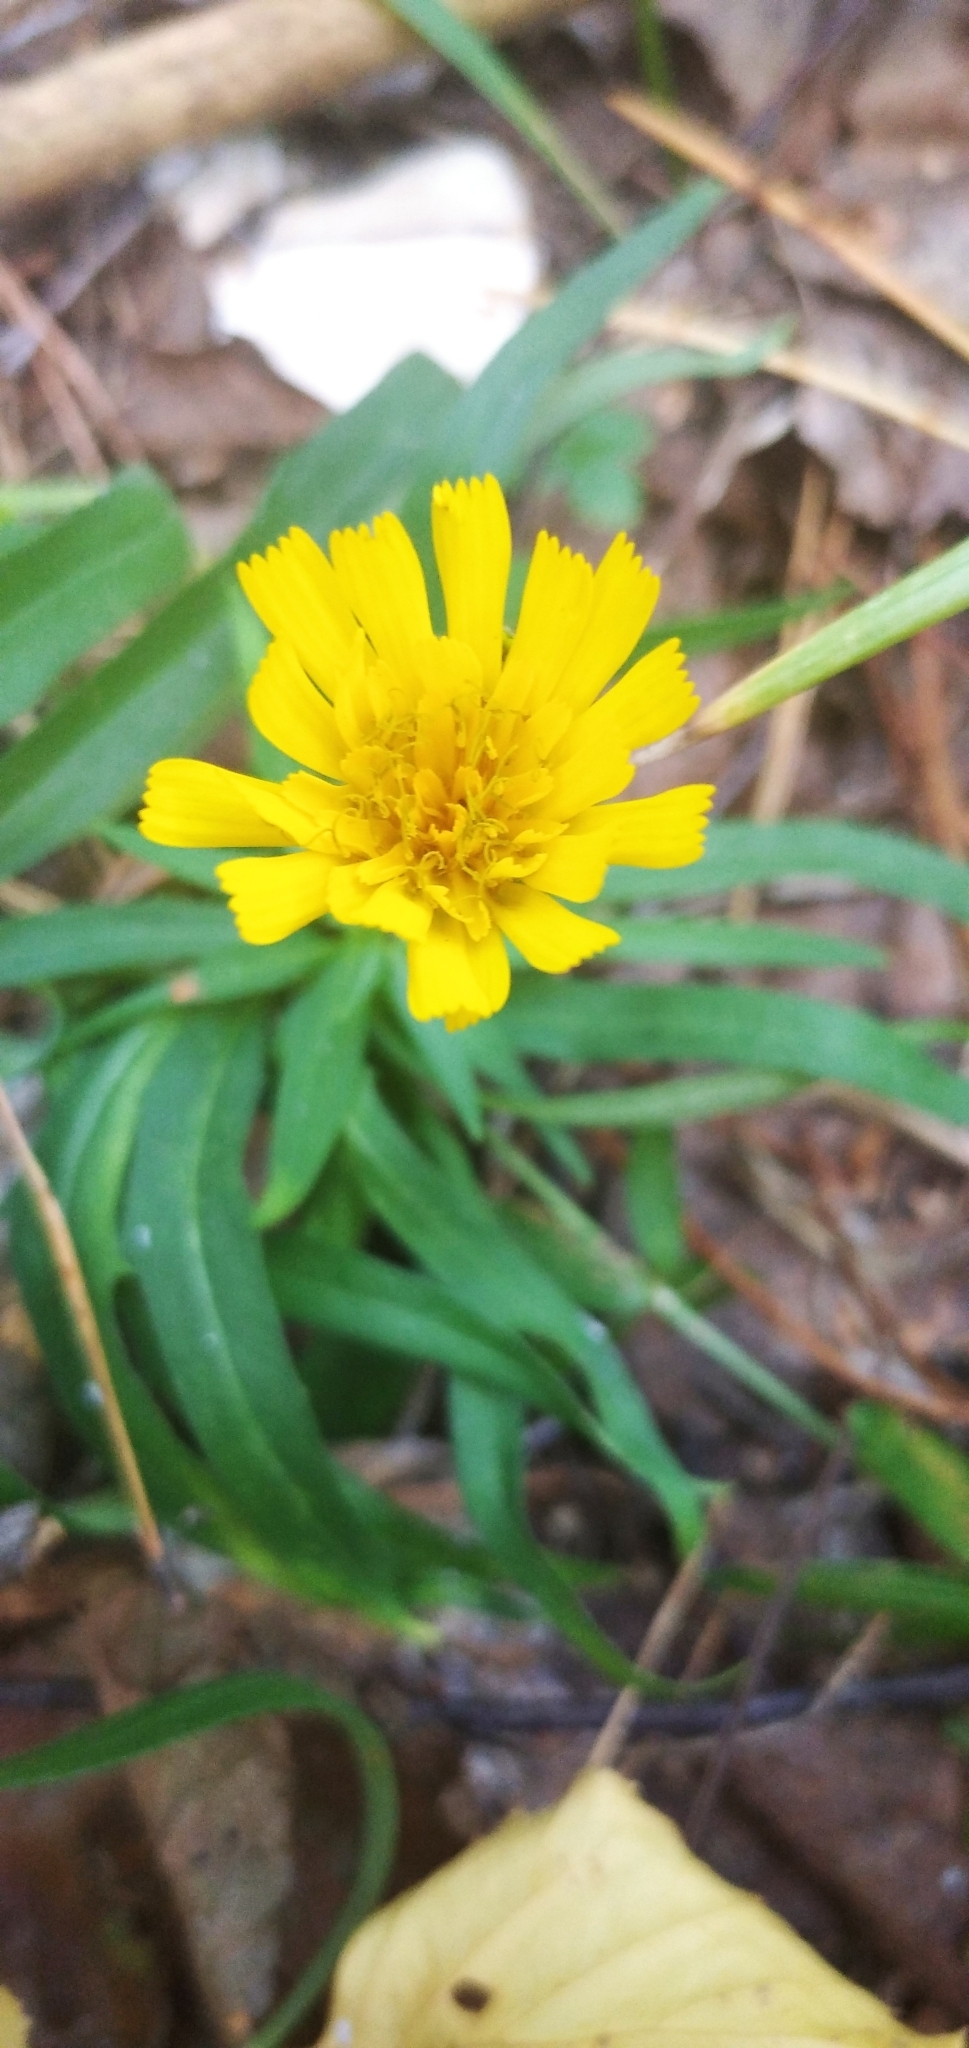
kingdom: Plantae
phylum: Tracheophyta
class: Magnoliopsida
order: Asterales
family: Asteraceae
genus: Hieracium
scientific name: Hieracium umbellatum
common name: Northern hawkweed
